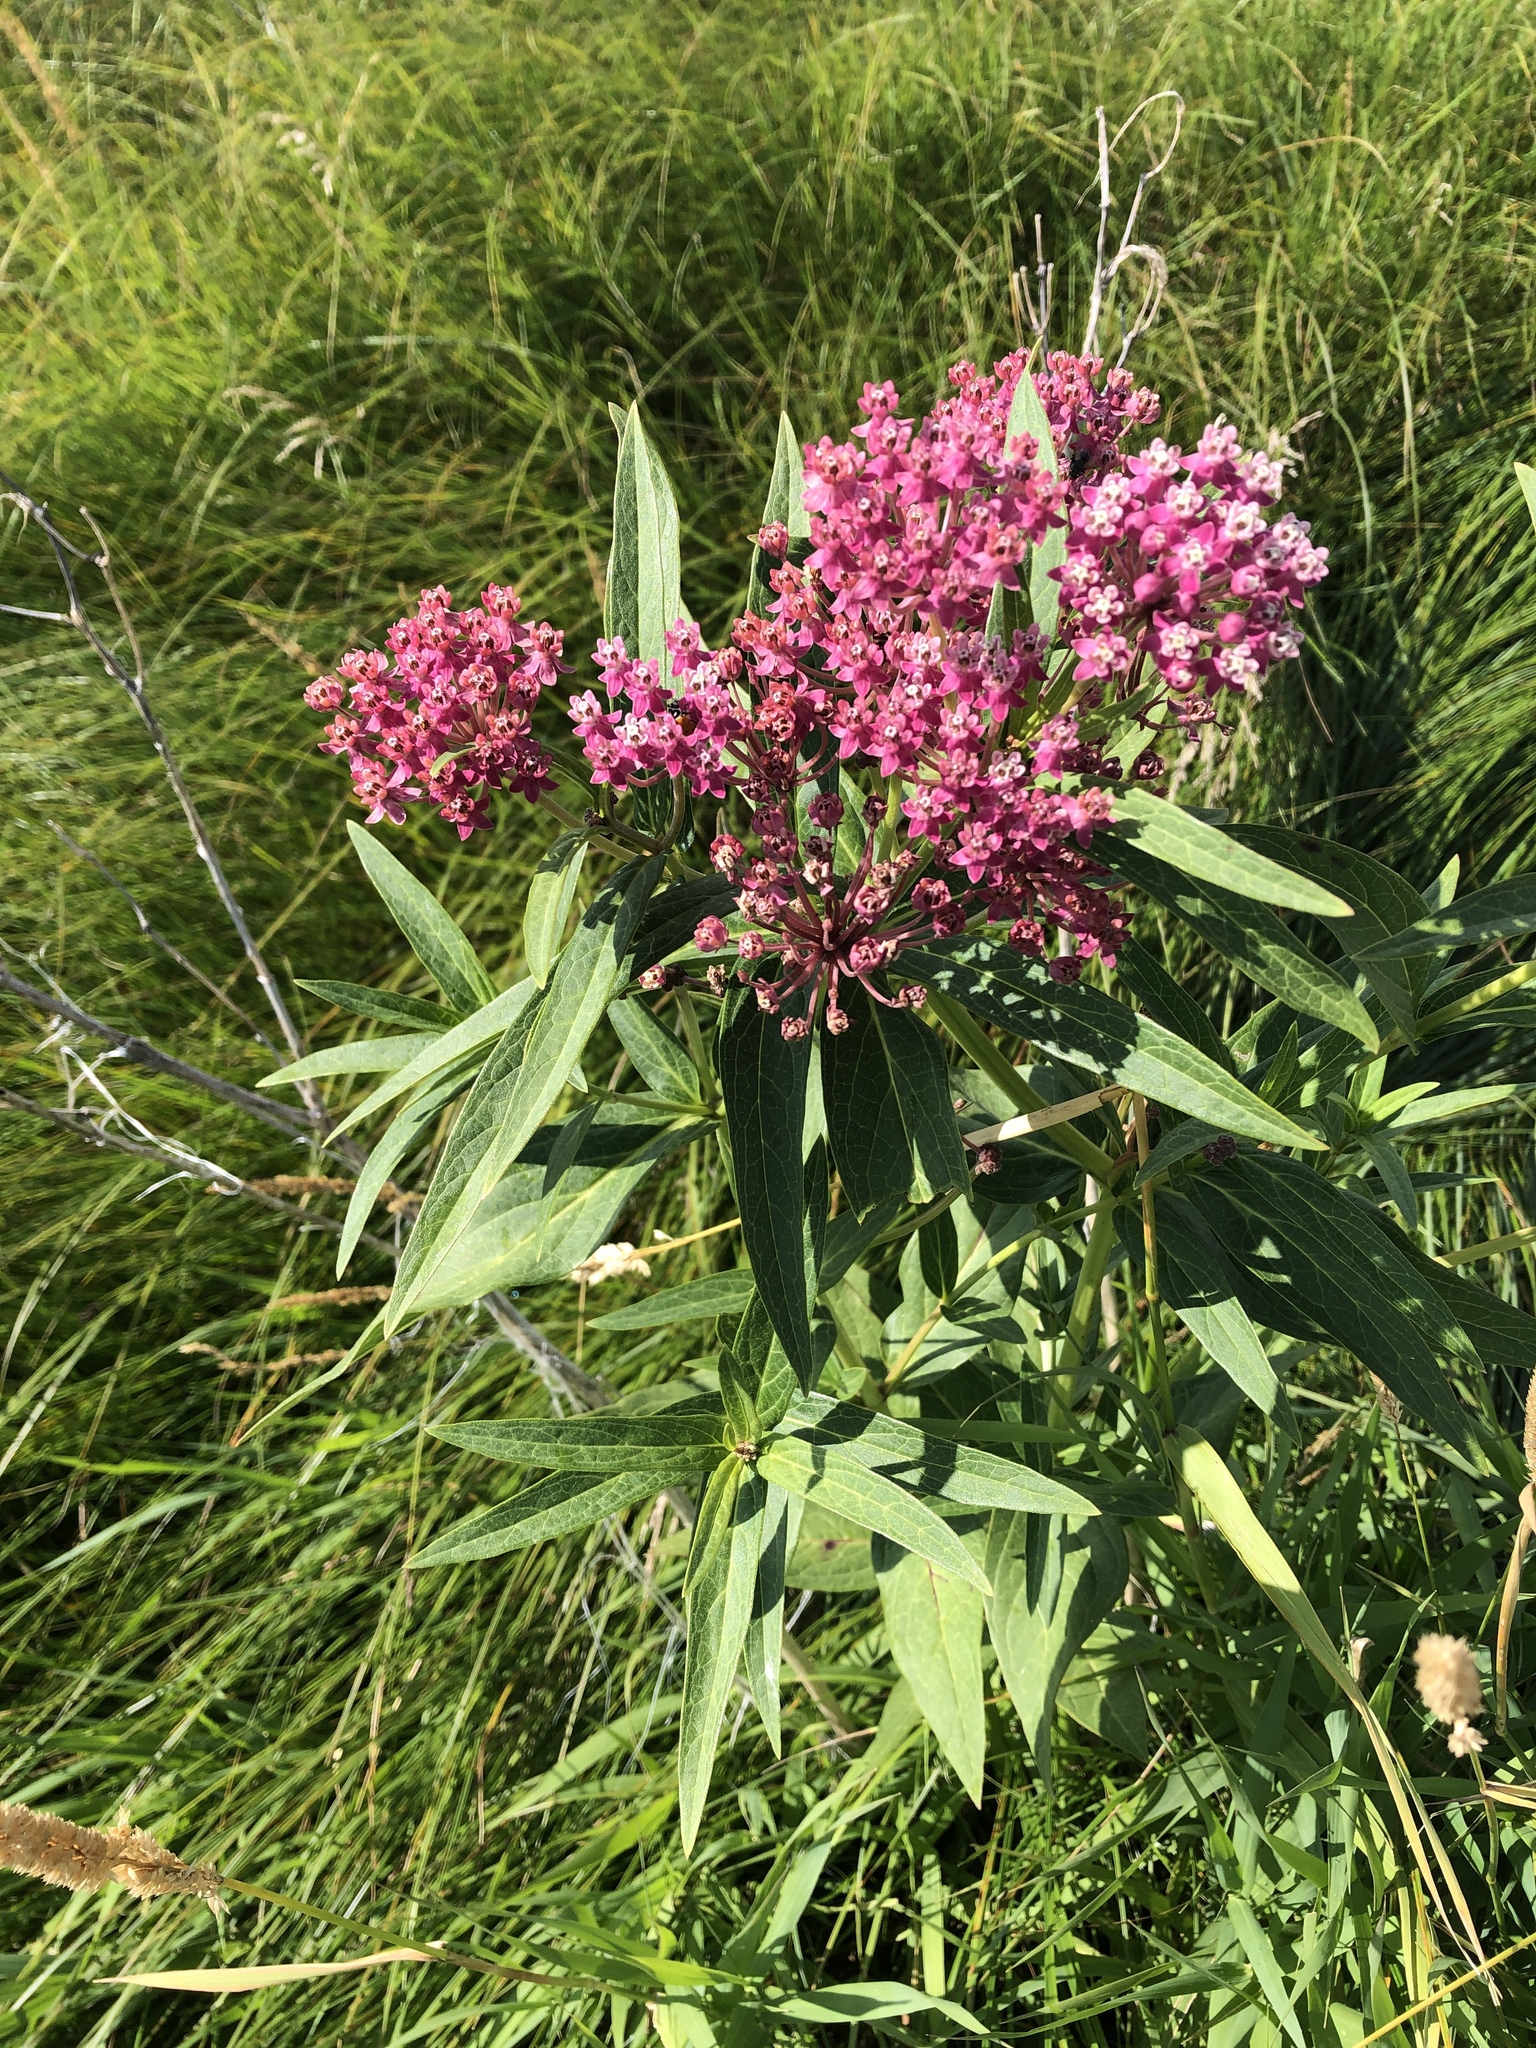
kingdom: Plantae
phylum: Tracheophyta
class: Magnoliopsida
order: Gentianales
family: Apocynaceae
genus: Asclepias
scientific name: Asclepias incarnata
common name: Swamp milkweed
